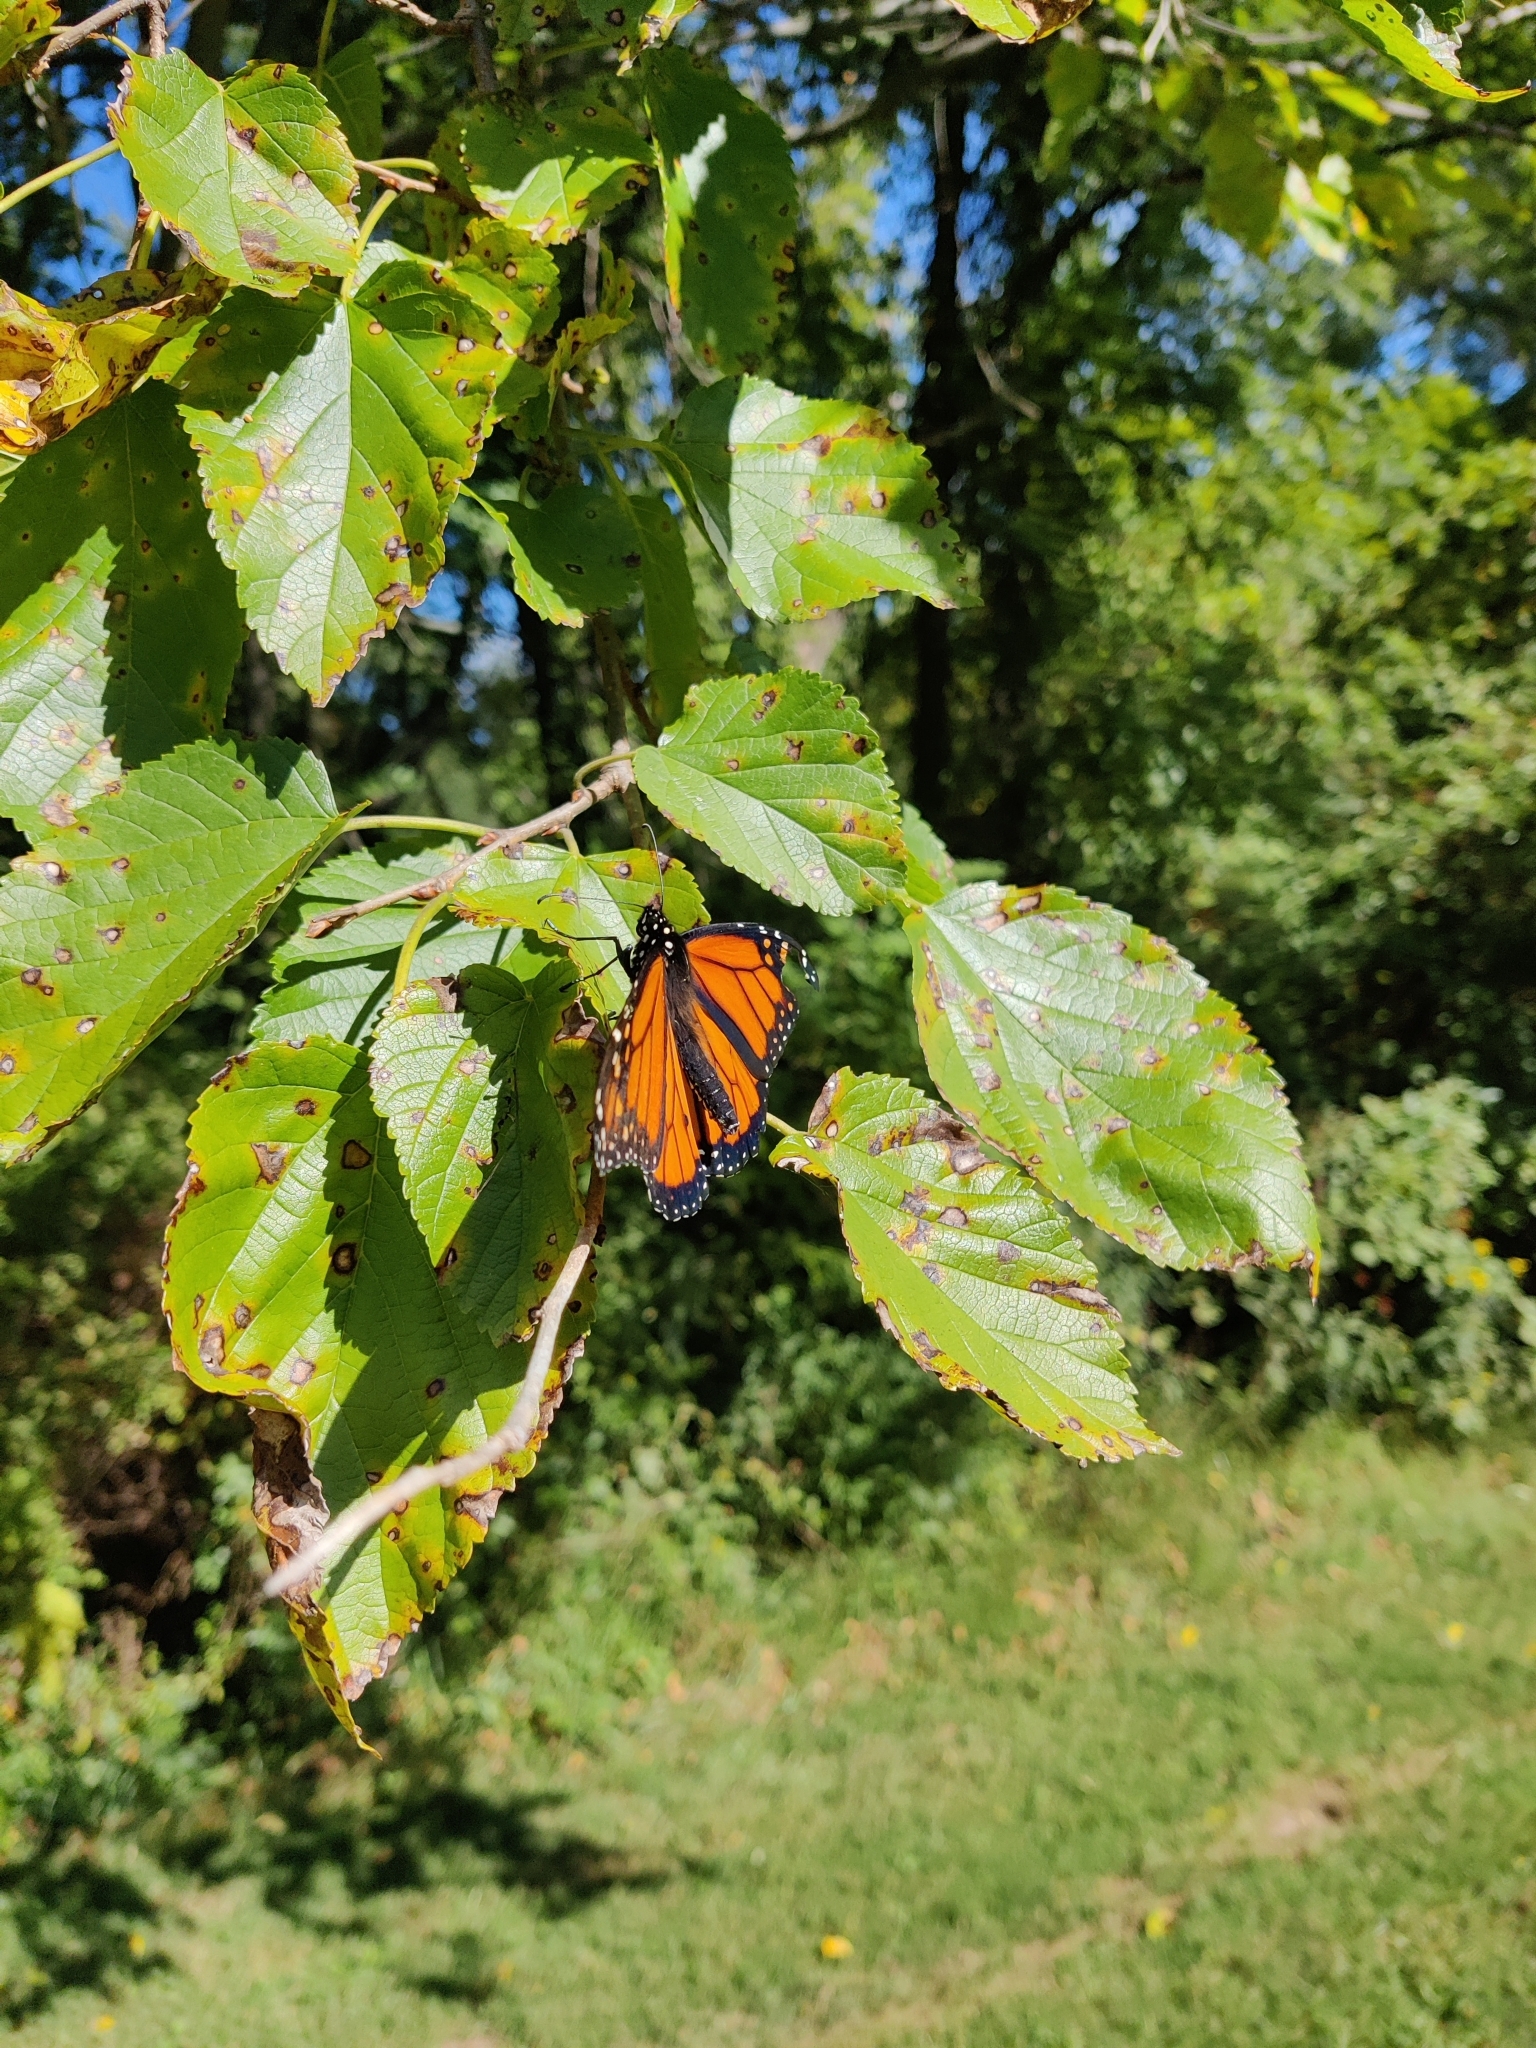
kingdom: Animalia
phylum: Arthropoda
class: Insecta
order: Lepidoptera
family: Nymphalidae
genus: Danaus
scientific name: Danaus plexippus
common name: Monarch
